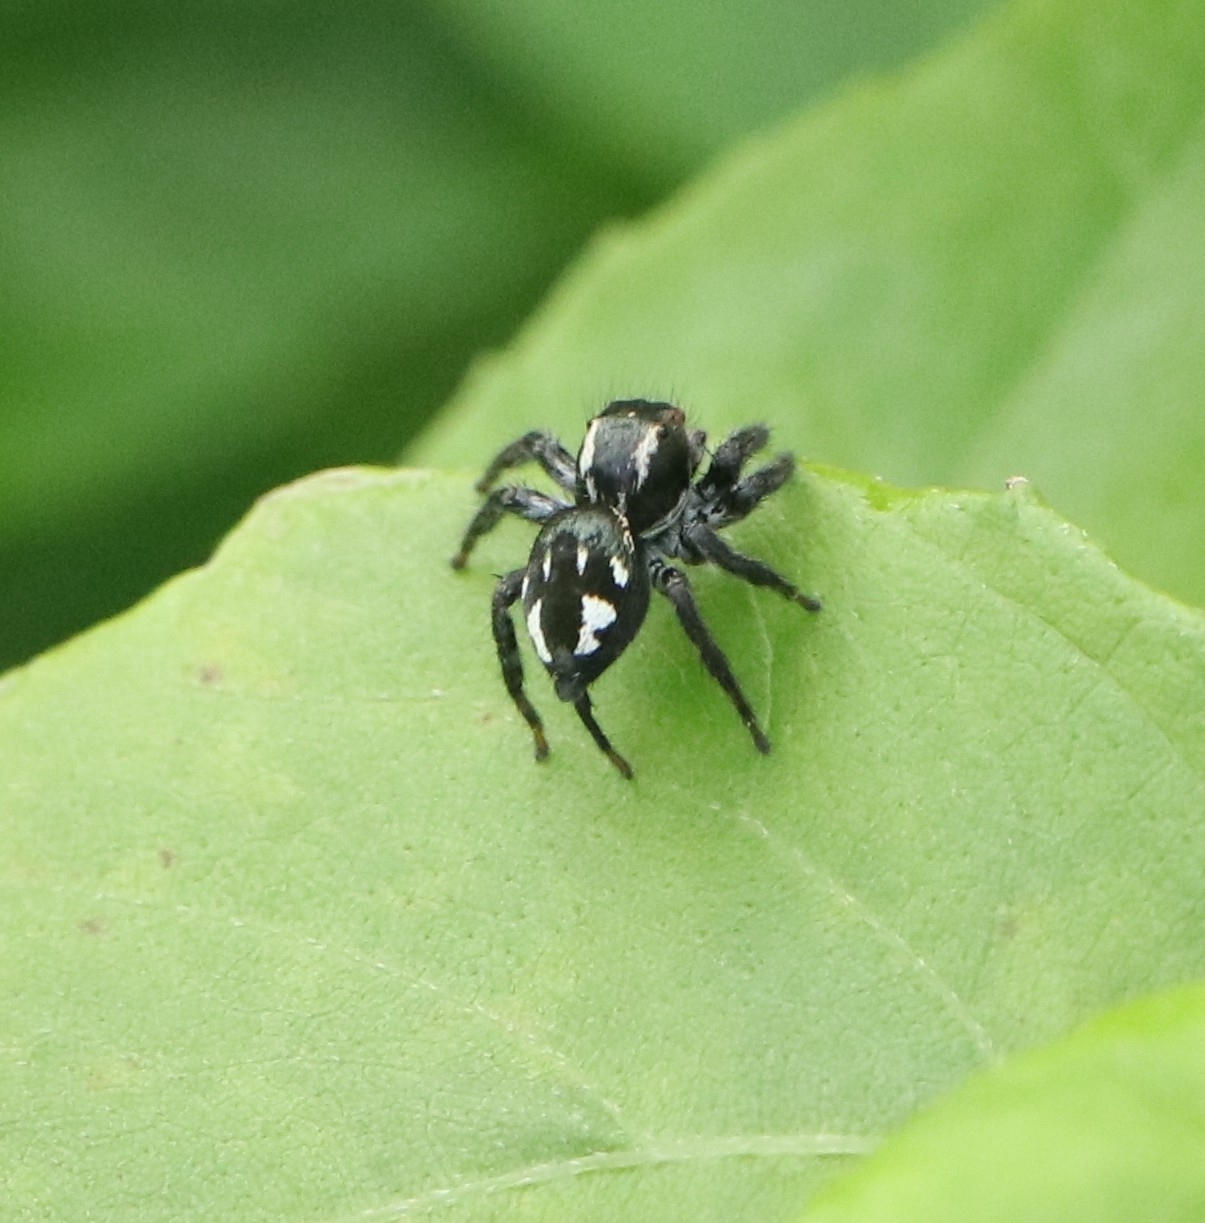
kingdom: Animalia
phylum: Arthropoda
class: Arachnida
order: Araneae
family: Salticidae
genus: Carrhotus
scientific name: Carrhotus viduus
